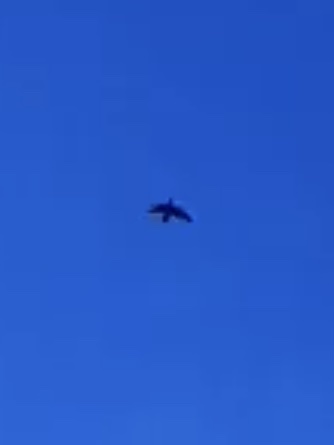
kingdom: Animalia
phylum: Chordata
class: Aves
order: Charadriiformes
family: Scolopacidae
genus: Scolopax
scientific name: Scolopax rusticola
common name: Eurasian woodcock
